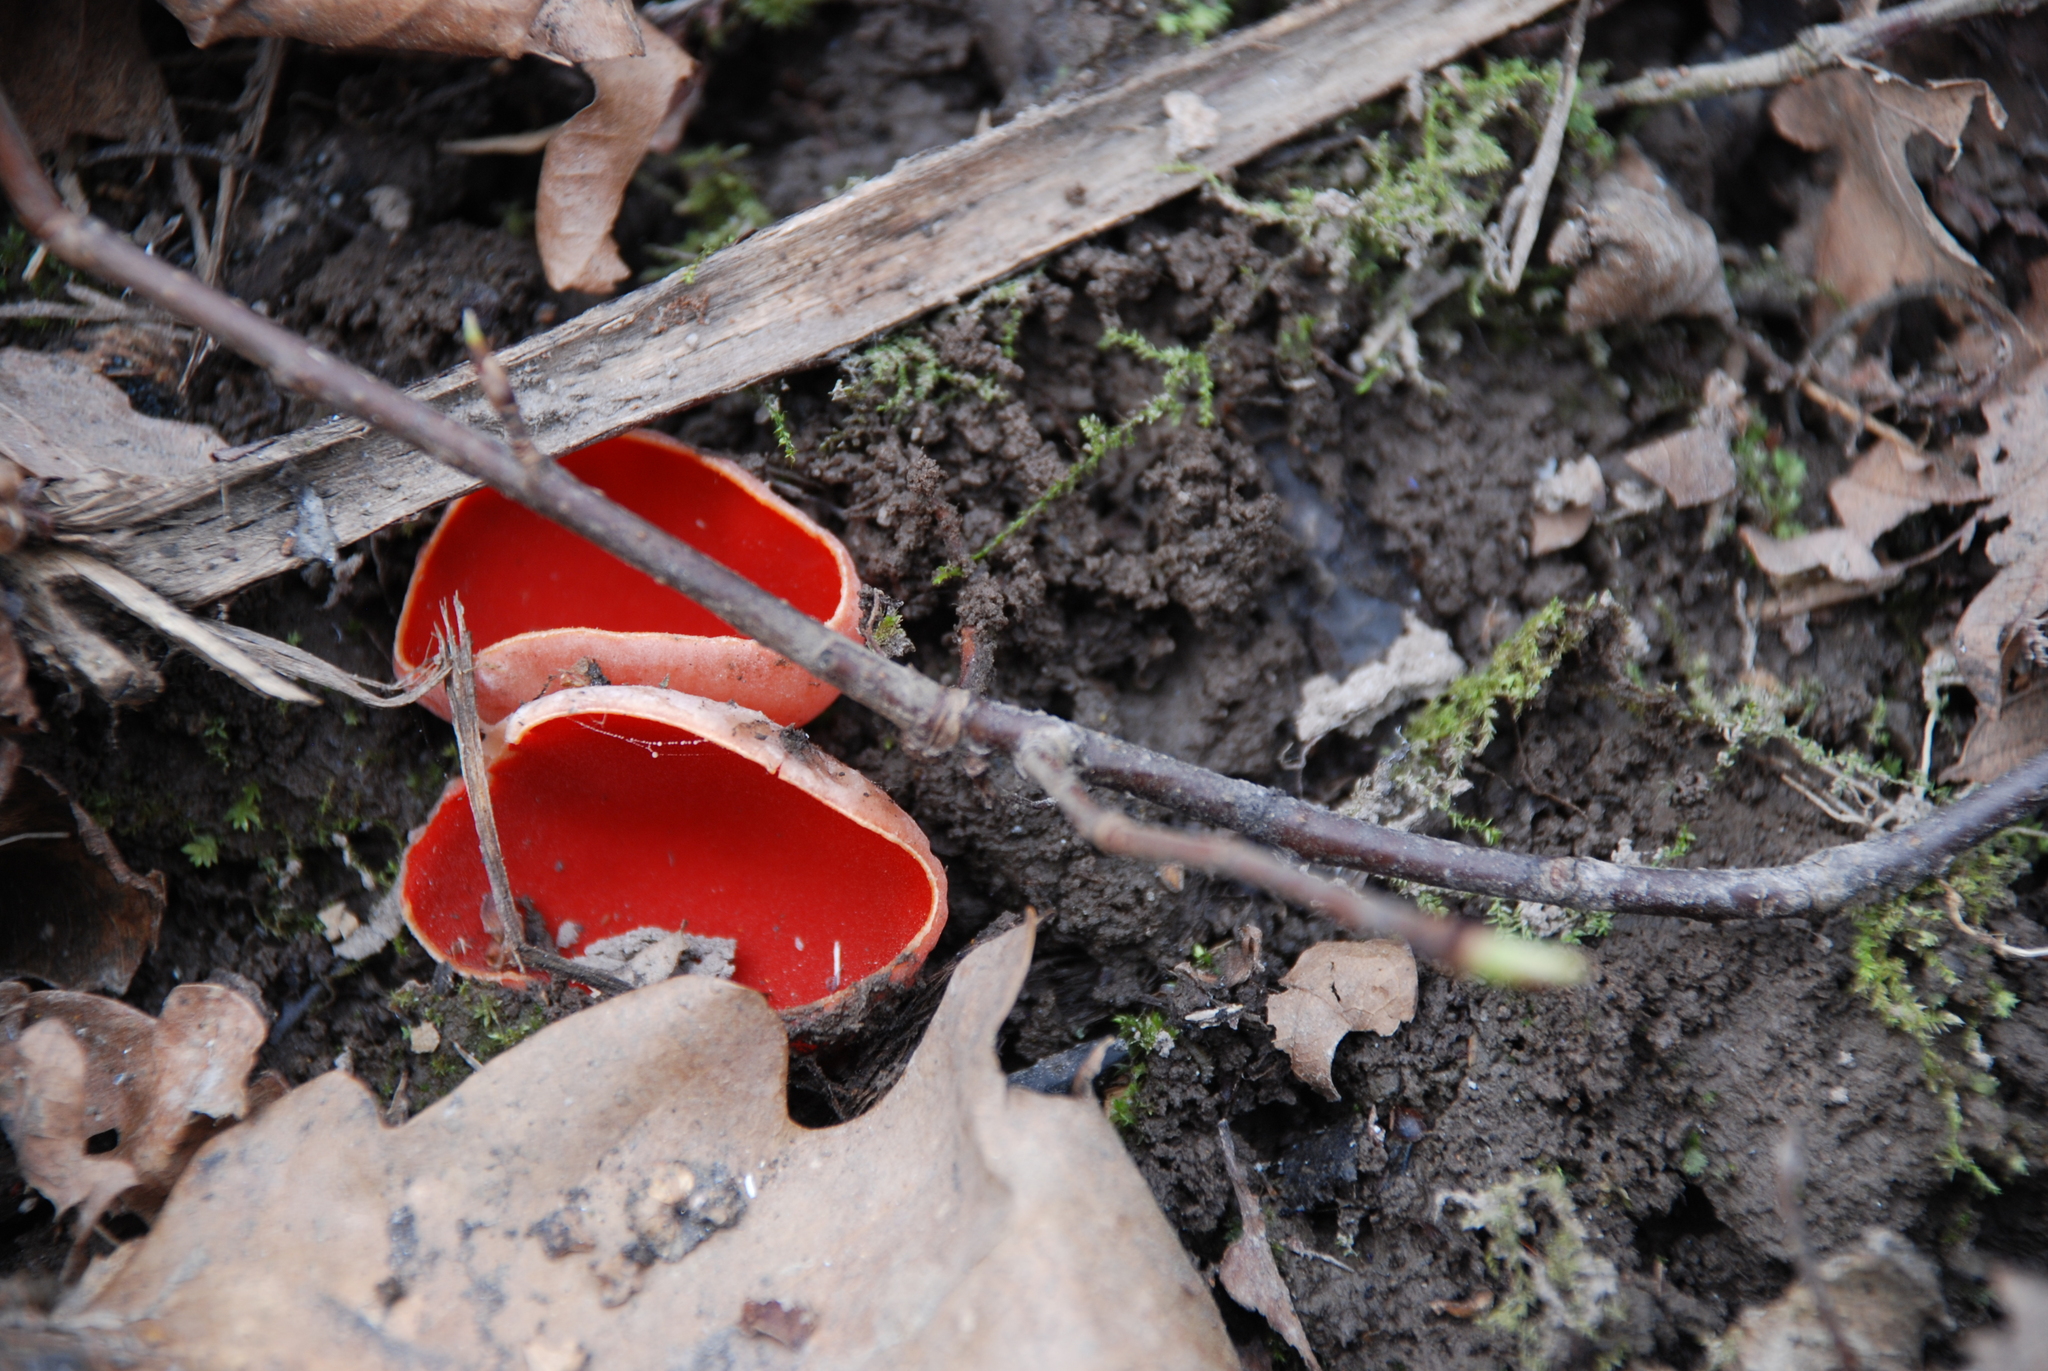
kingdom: Fungi
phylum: Ascomycota
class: Pezizomycetes
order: Pezizales
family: Sarcoscyphaceae
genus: Sarcoscypha
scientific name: Sarcoscypha
